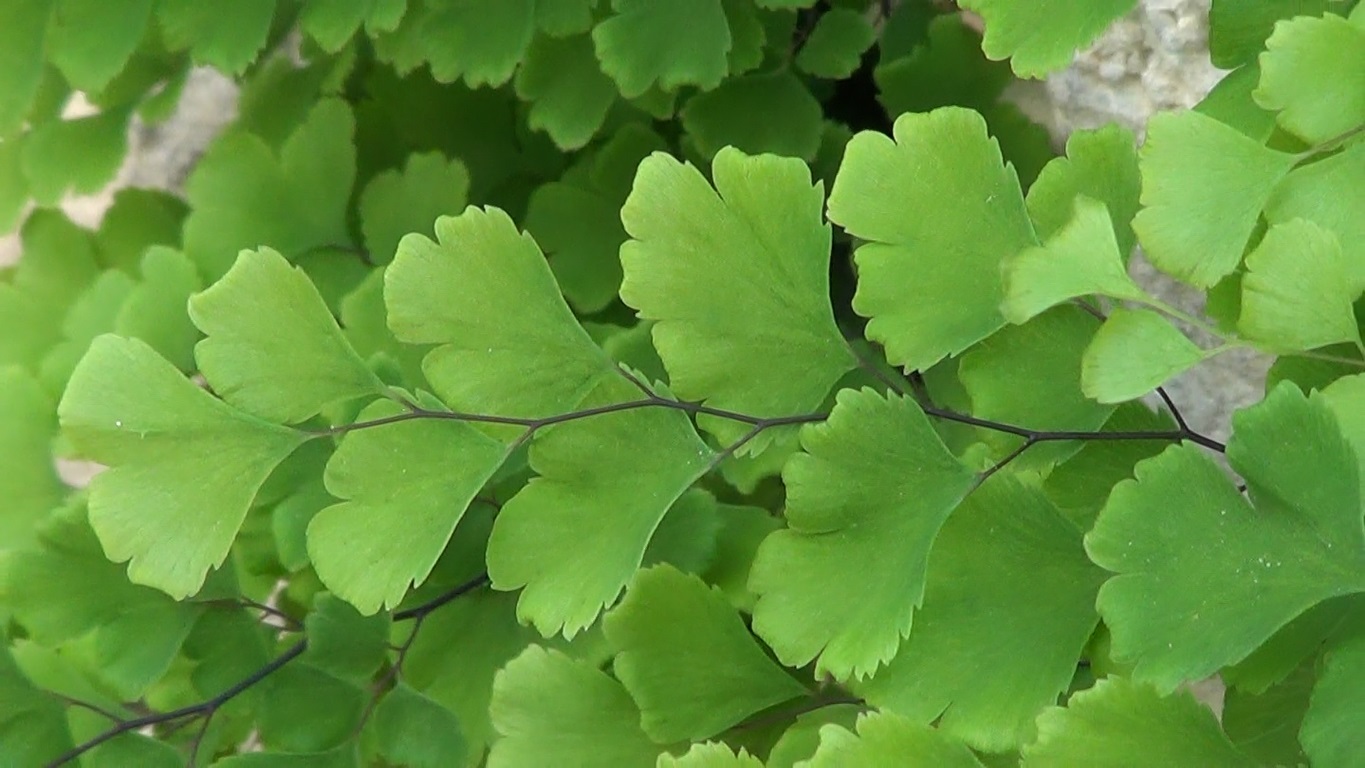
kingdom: Plantae
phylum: Tracheophyta
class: Polypodiopsida
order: Polypodiales
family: Pteridaceae
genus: Adiantum
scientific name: Adiantum capillus-veneris
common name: Maidenhair fern
